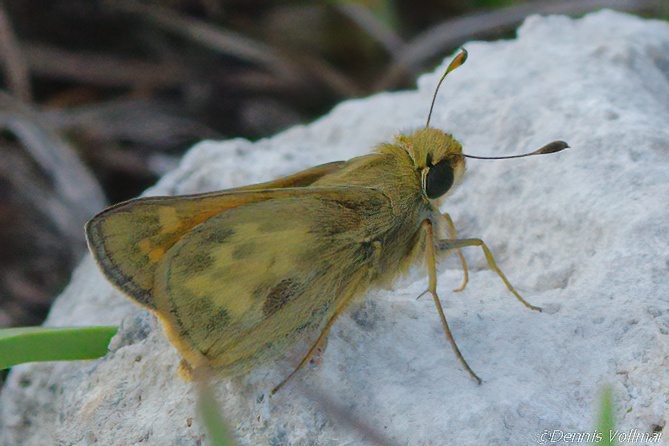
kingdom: Animalia
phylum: Arthropoda
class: Insecta
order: Lepidoptera
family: Hesperiidae
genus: Atalopedes
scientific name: Atalopedes
